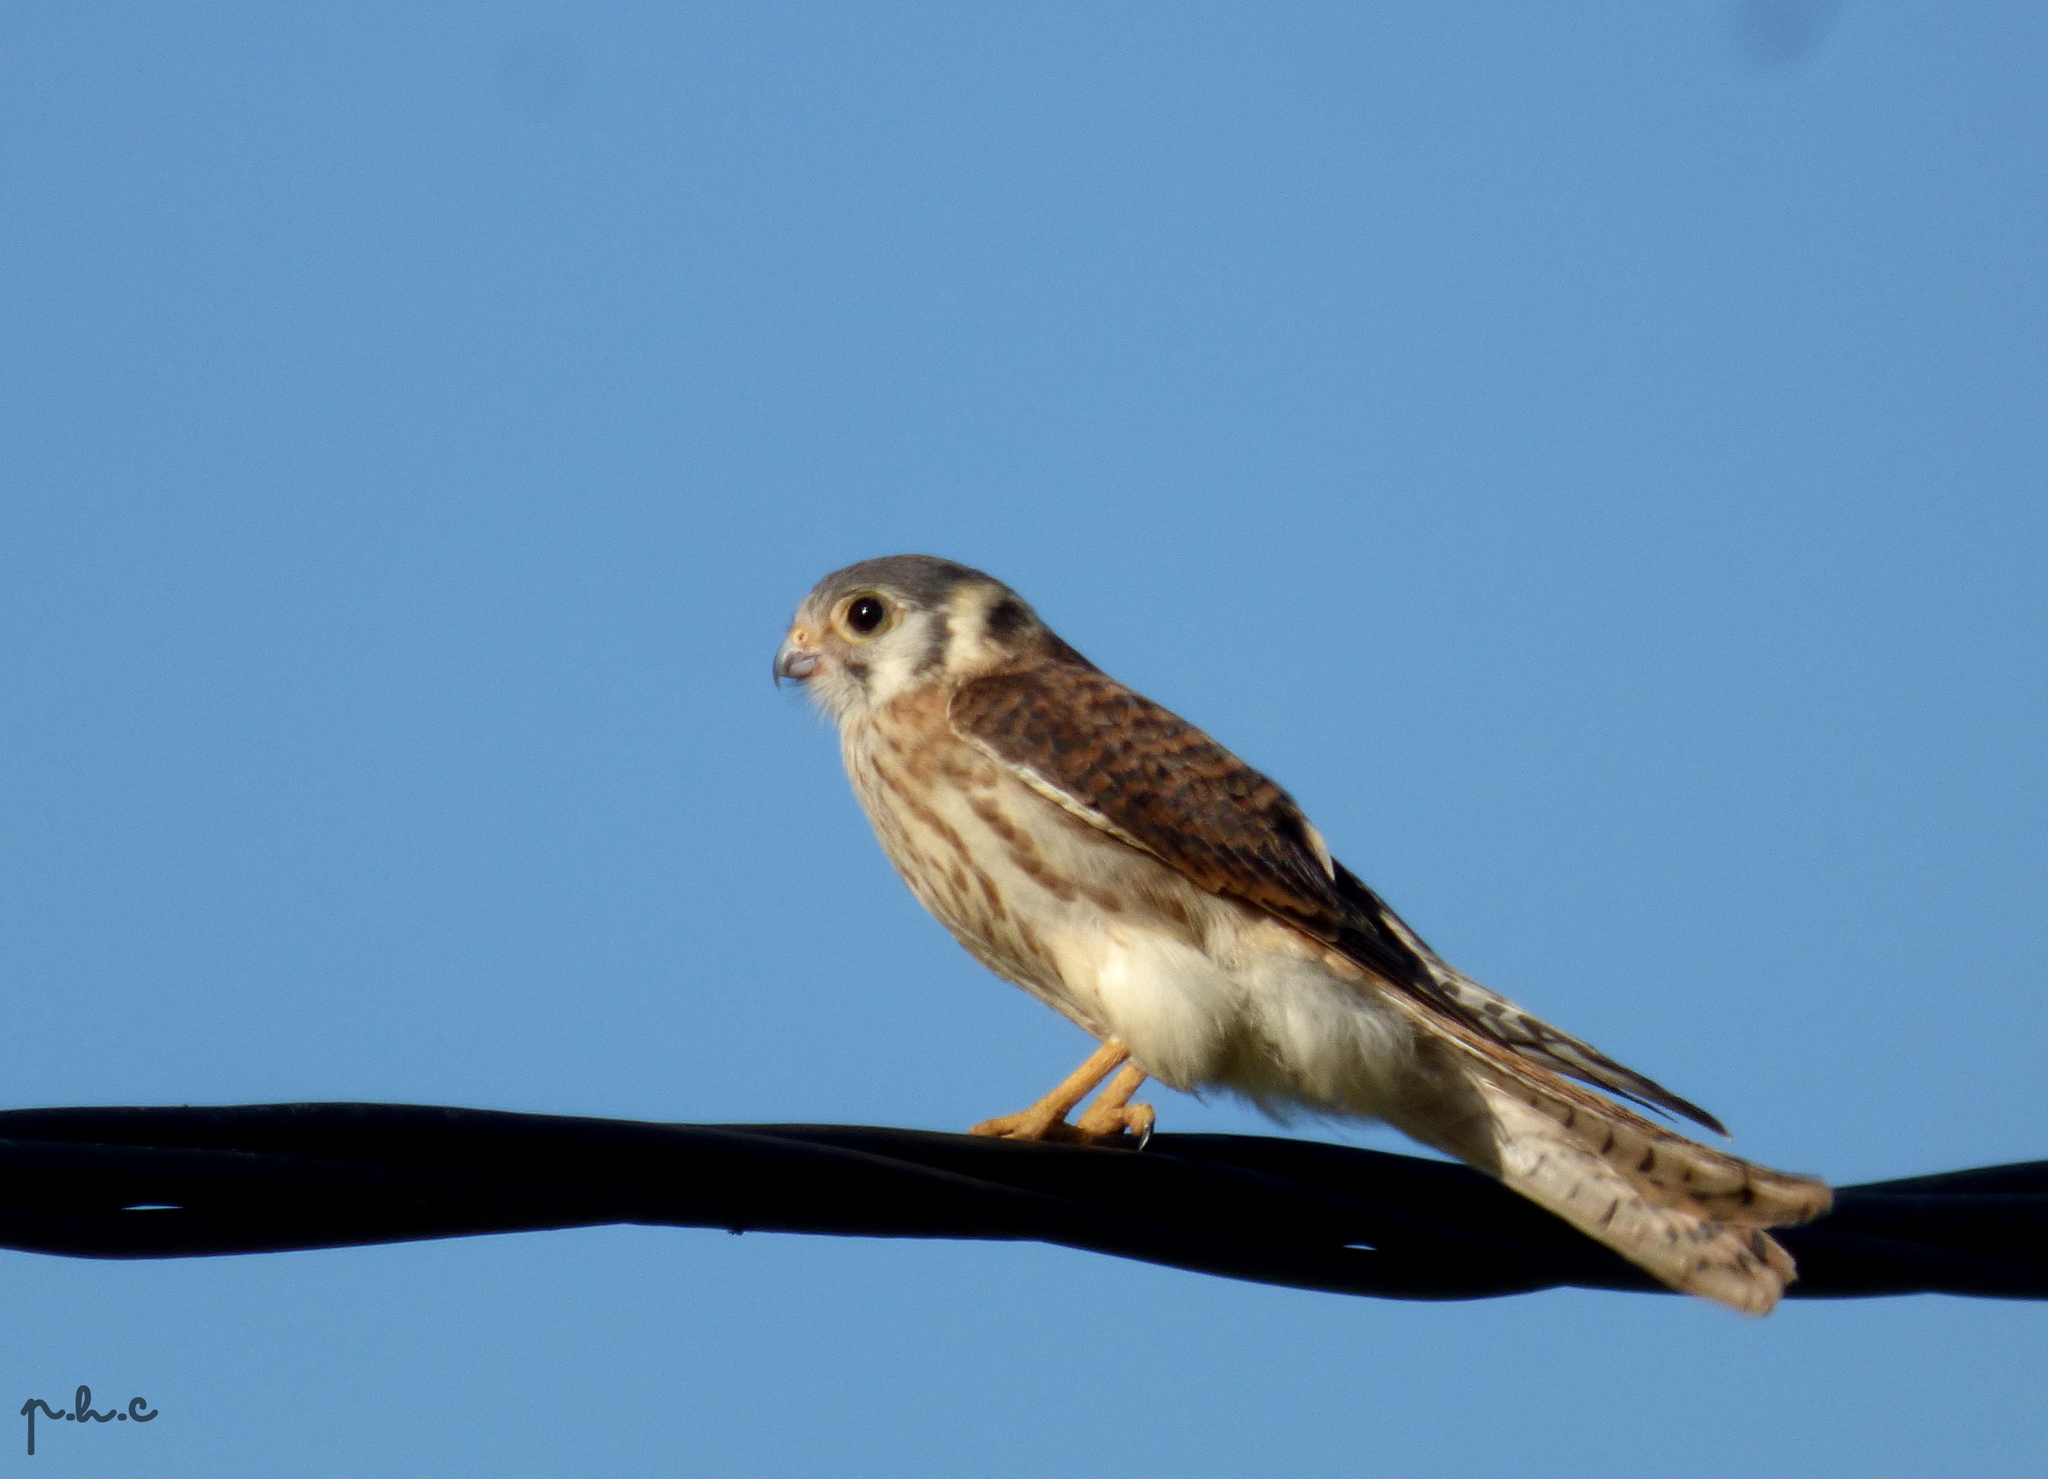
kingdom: Animalia
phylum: Chordata
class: Aves
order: Falconiformes
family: Falconidae
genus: Falco
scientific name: Falco sparverius
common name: American kestrel
